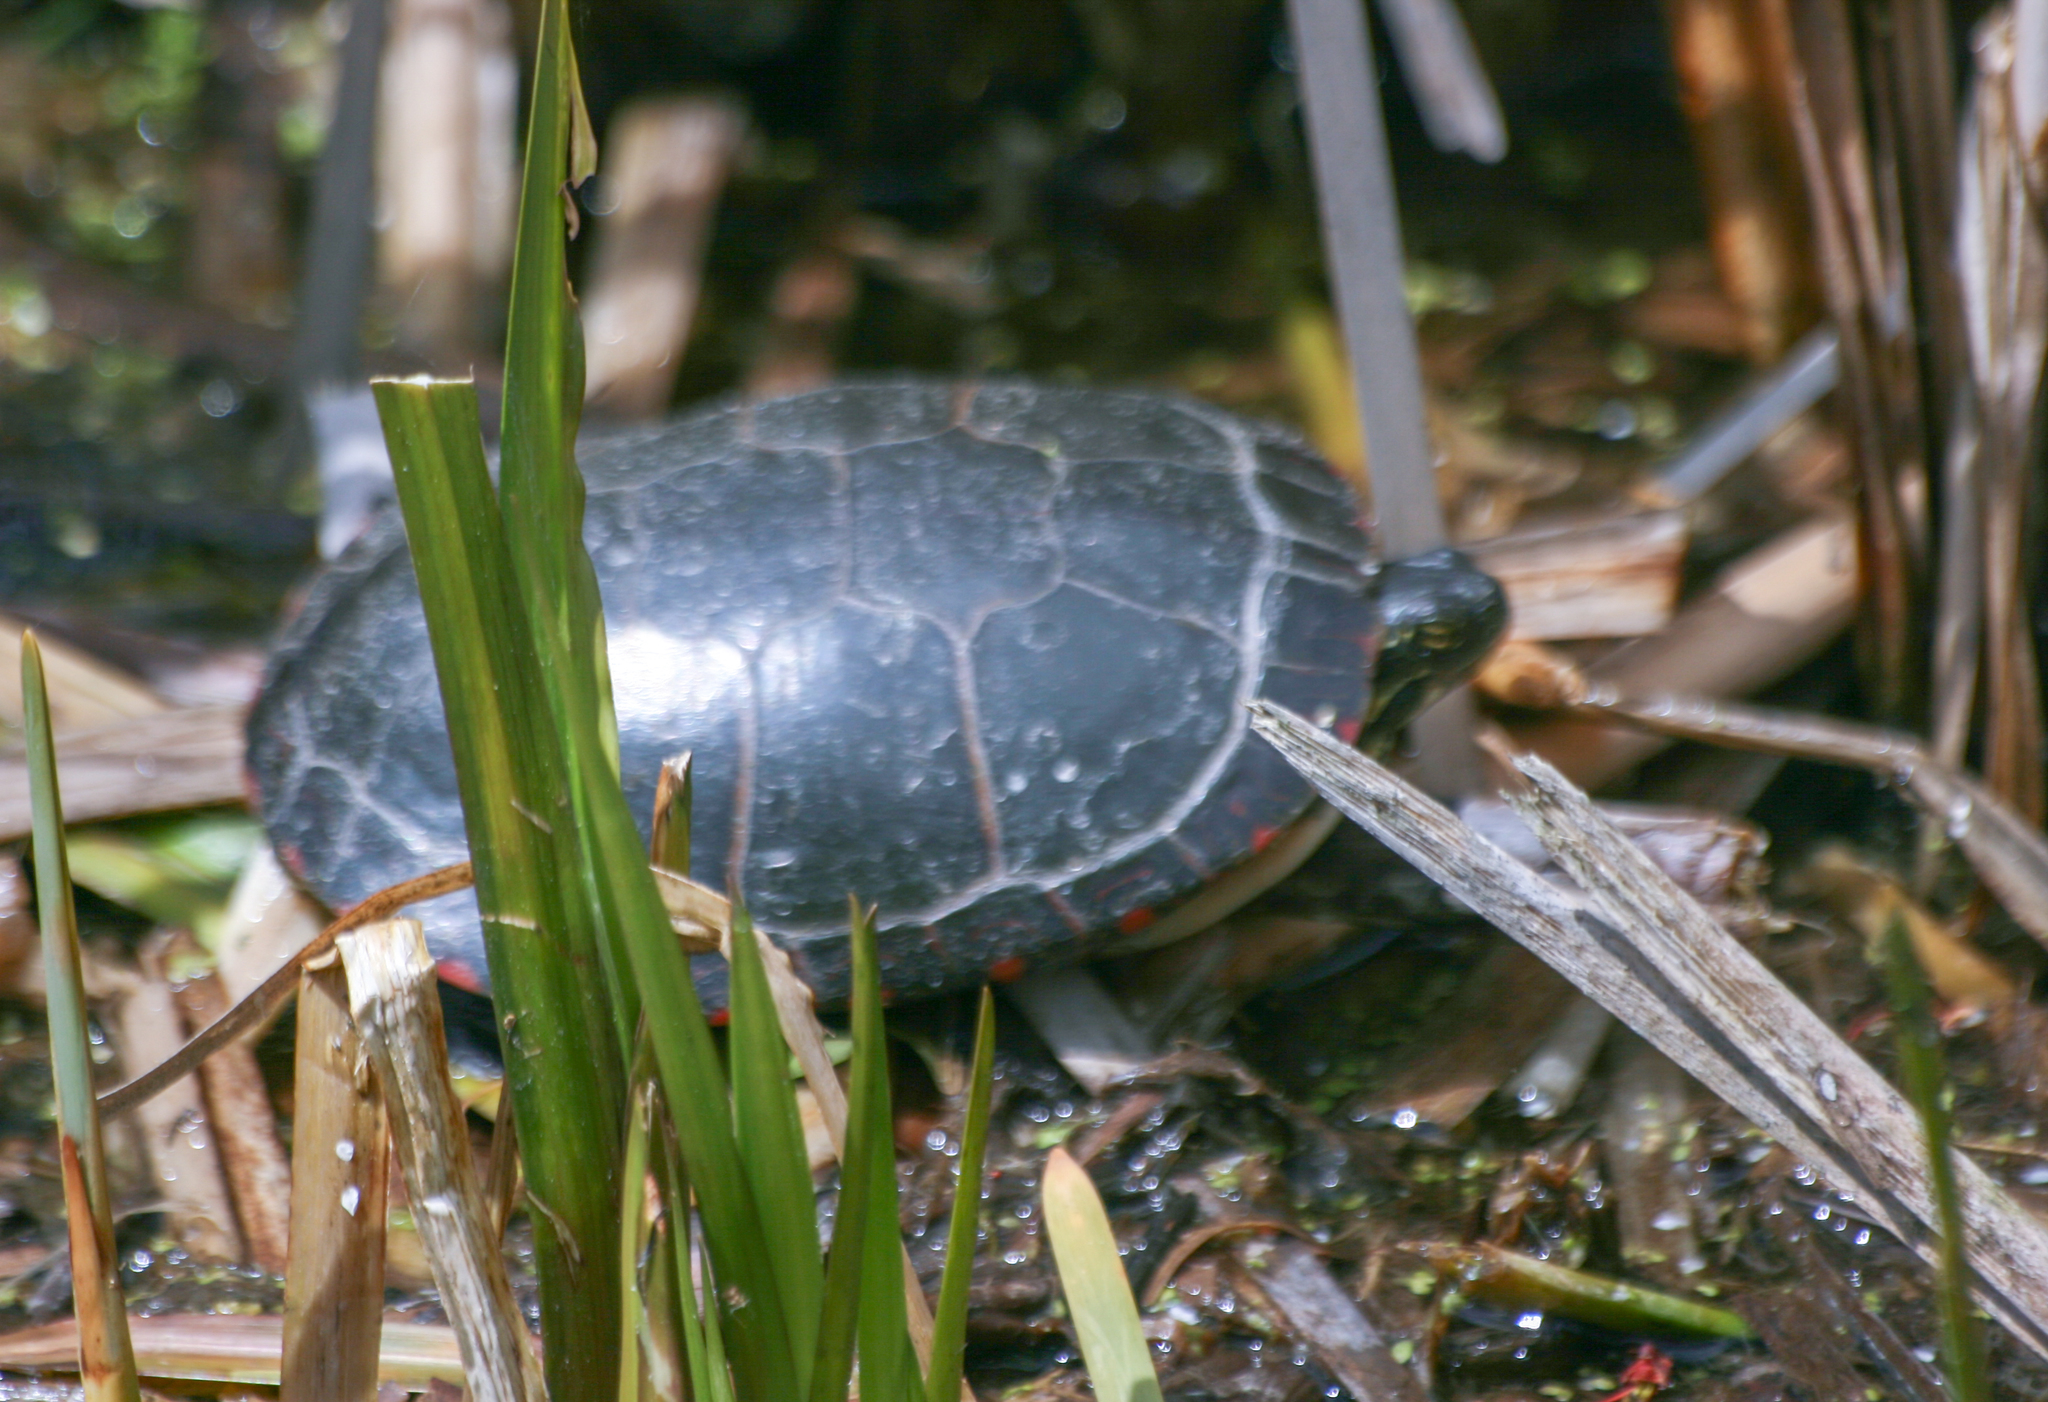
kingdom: Animalia
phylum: Chordata
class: Testudines
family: Emydidae
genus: Chrysemys
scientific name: Chrysemys picta
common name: Painted turtle
